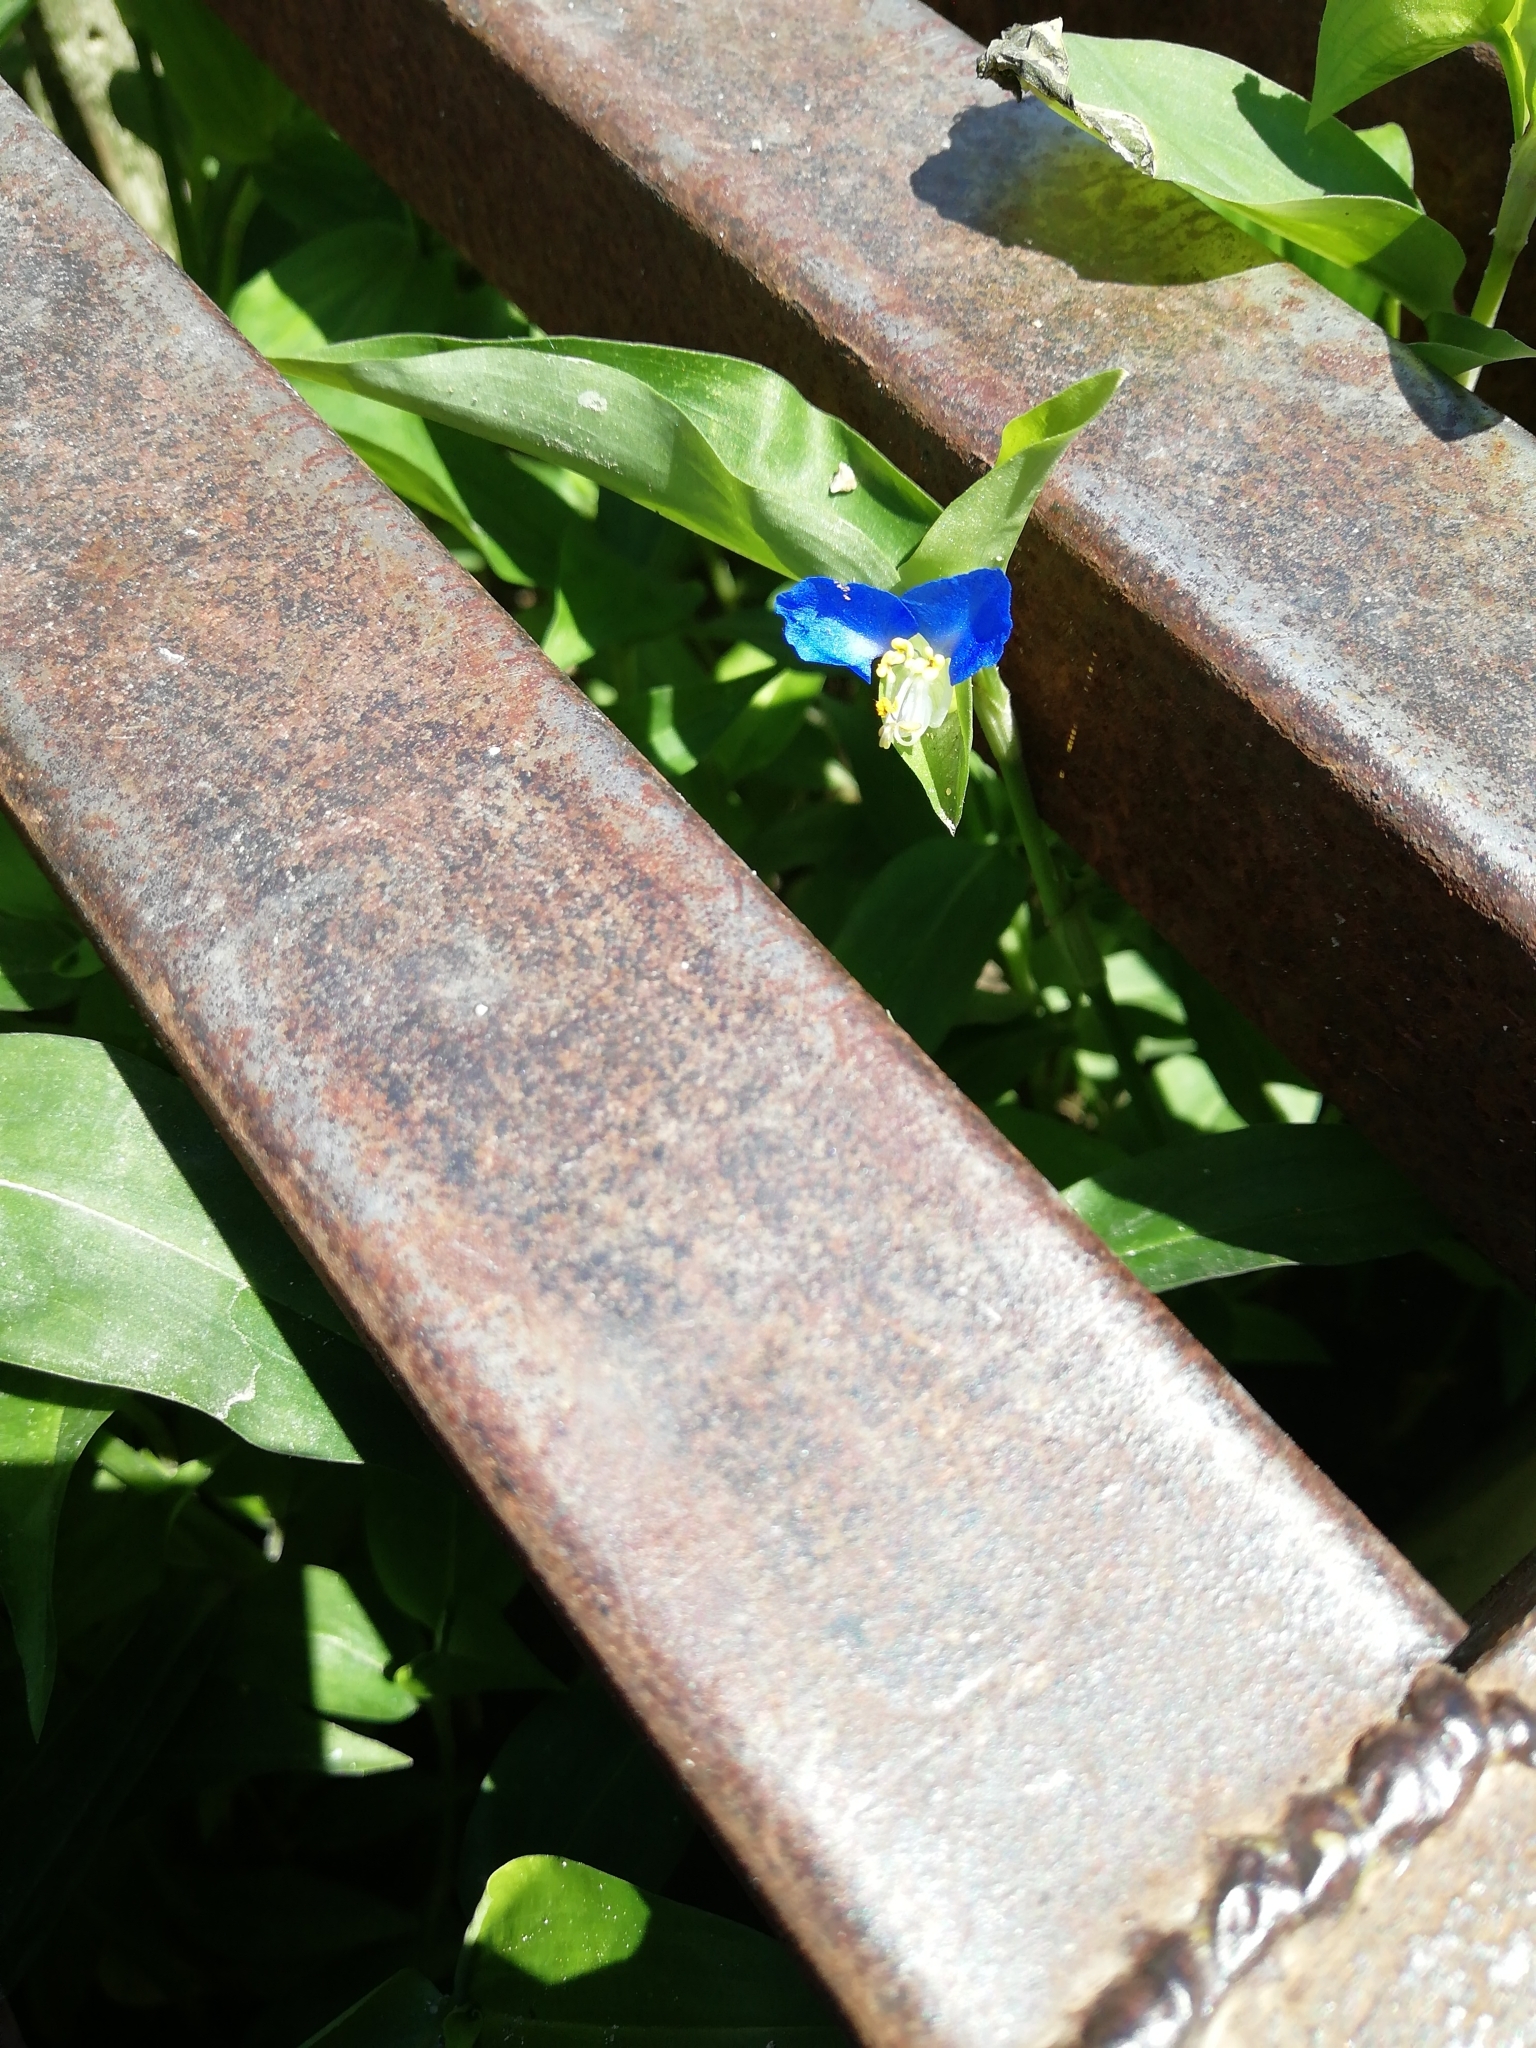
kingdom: Plantae
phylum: Tracheophyta
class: Liliopsida
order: Commelinales
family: Commelinaceae
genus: Commelina
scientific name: Commelina communis
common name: Asiatic dayflower
